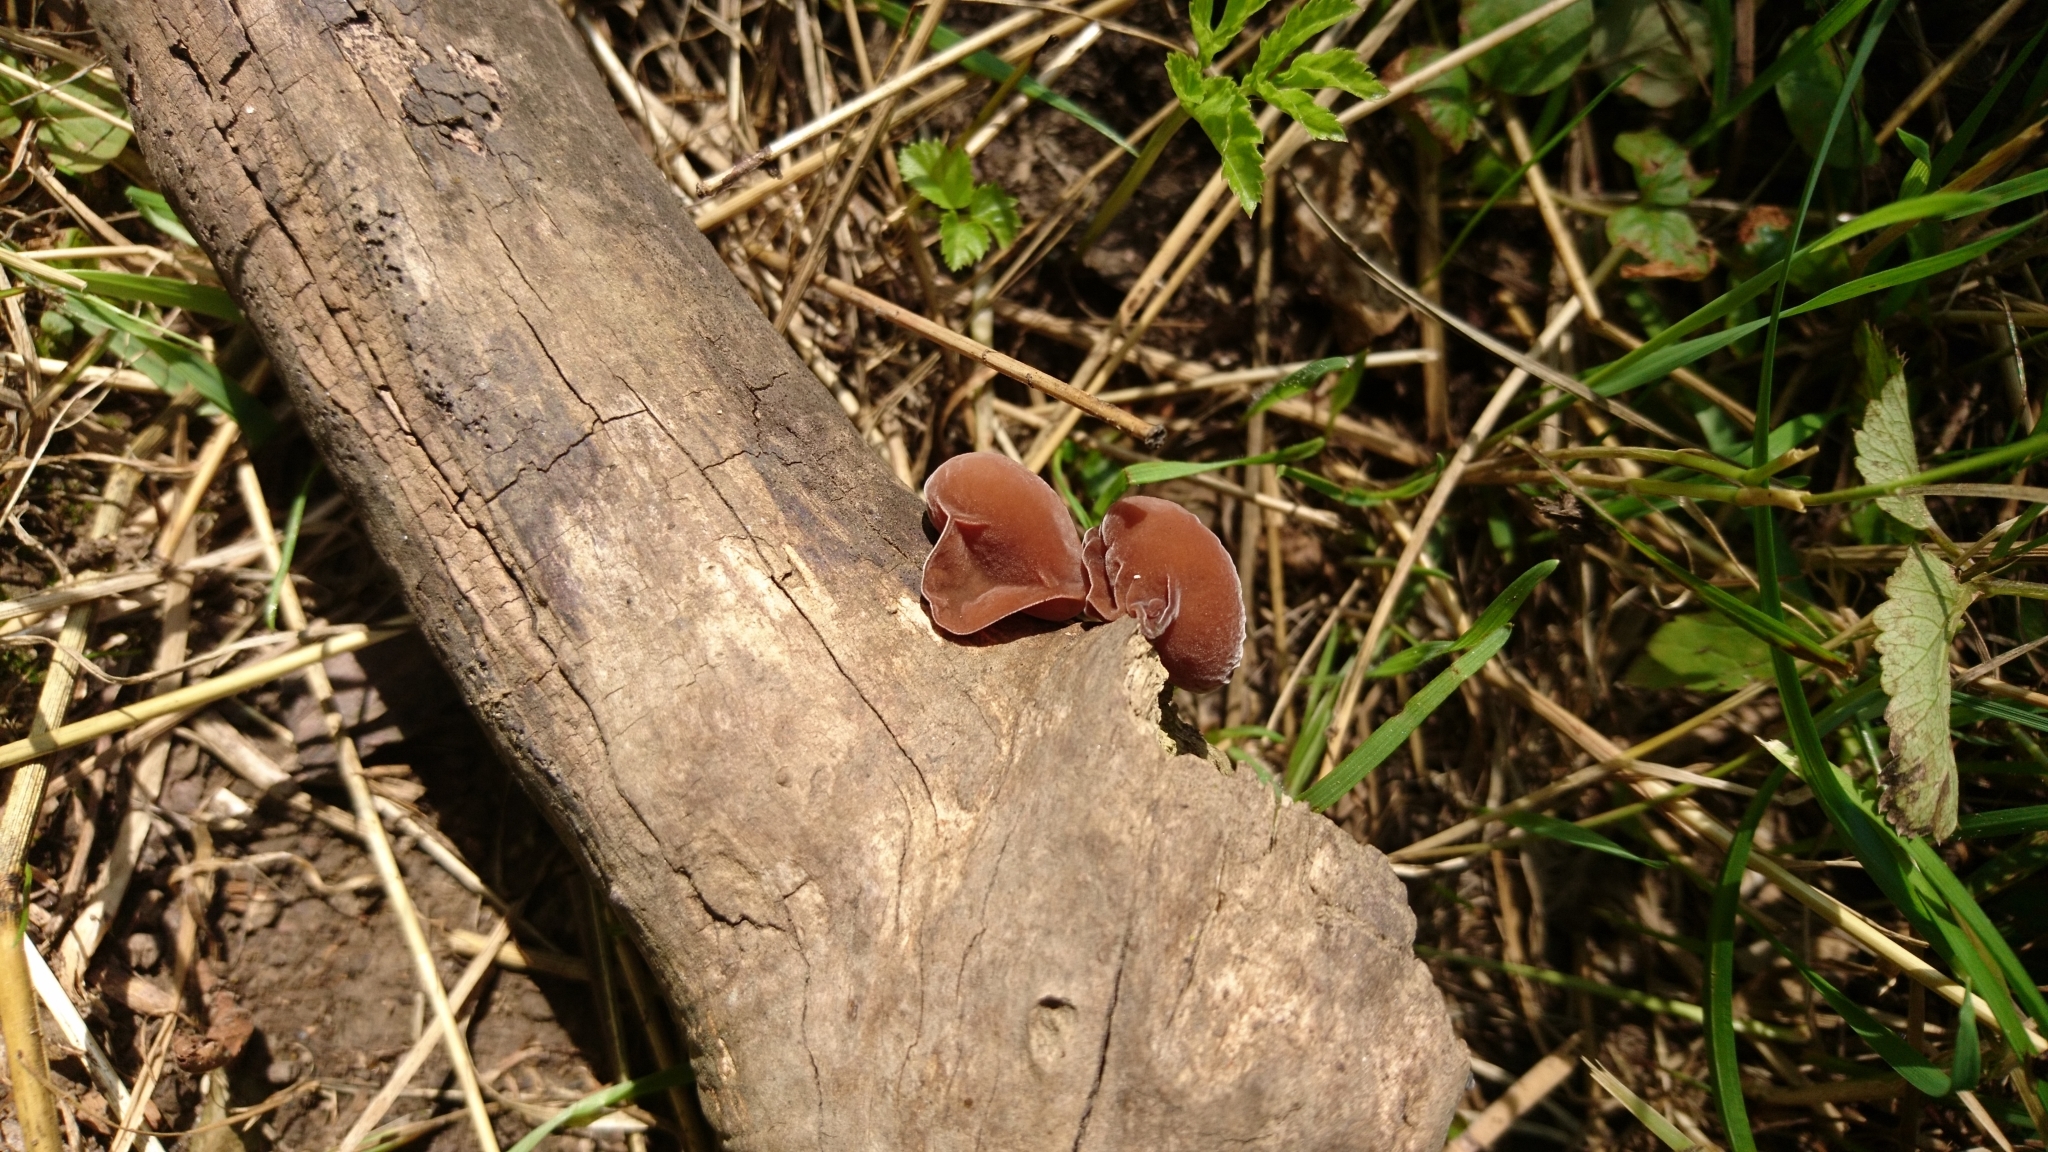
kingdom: Fungi
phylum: Basidiomycota
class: Agaricomycetes
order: Auriculariales
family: Auriculariaceae
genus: Auricularia
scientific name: Auricularia auricula-judae
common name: Jelly ear
